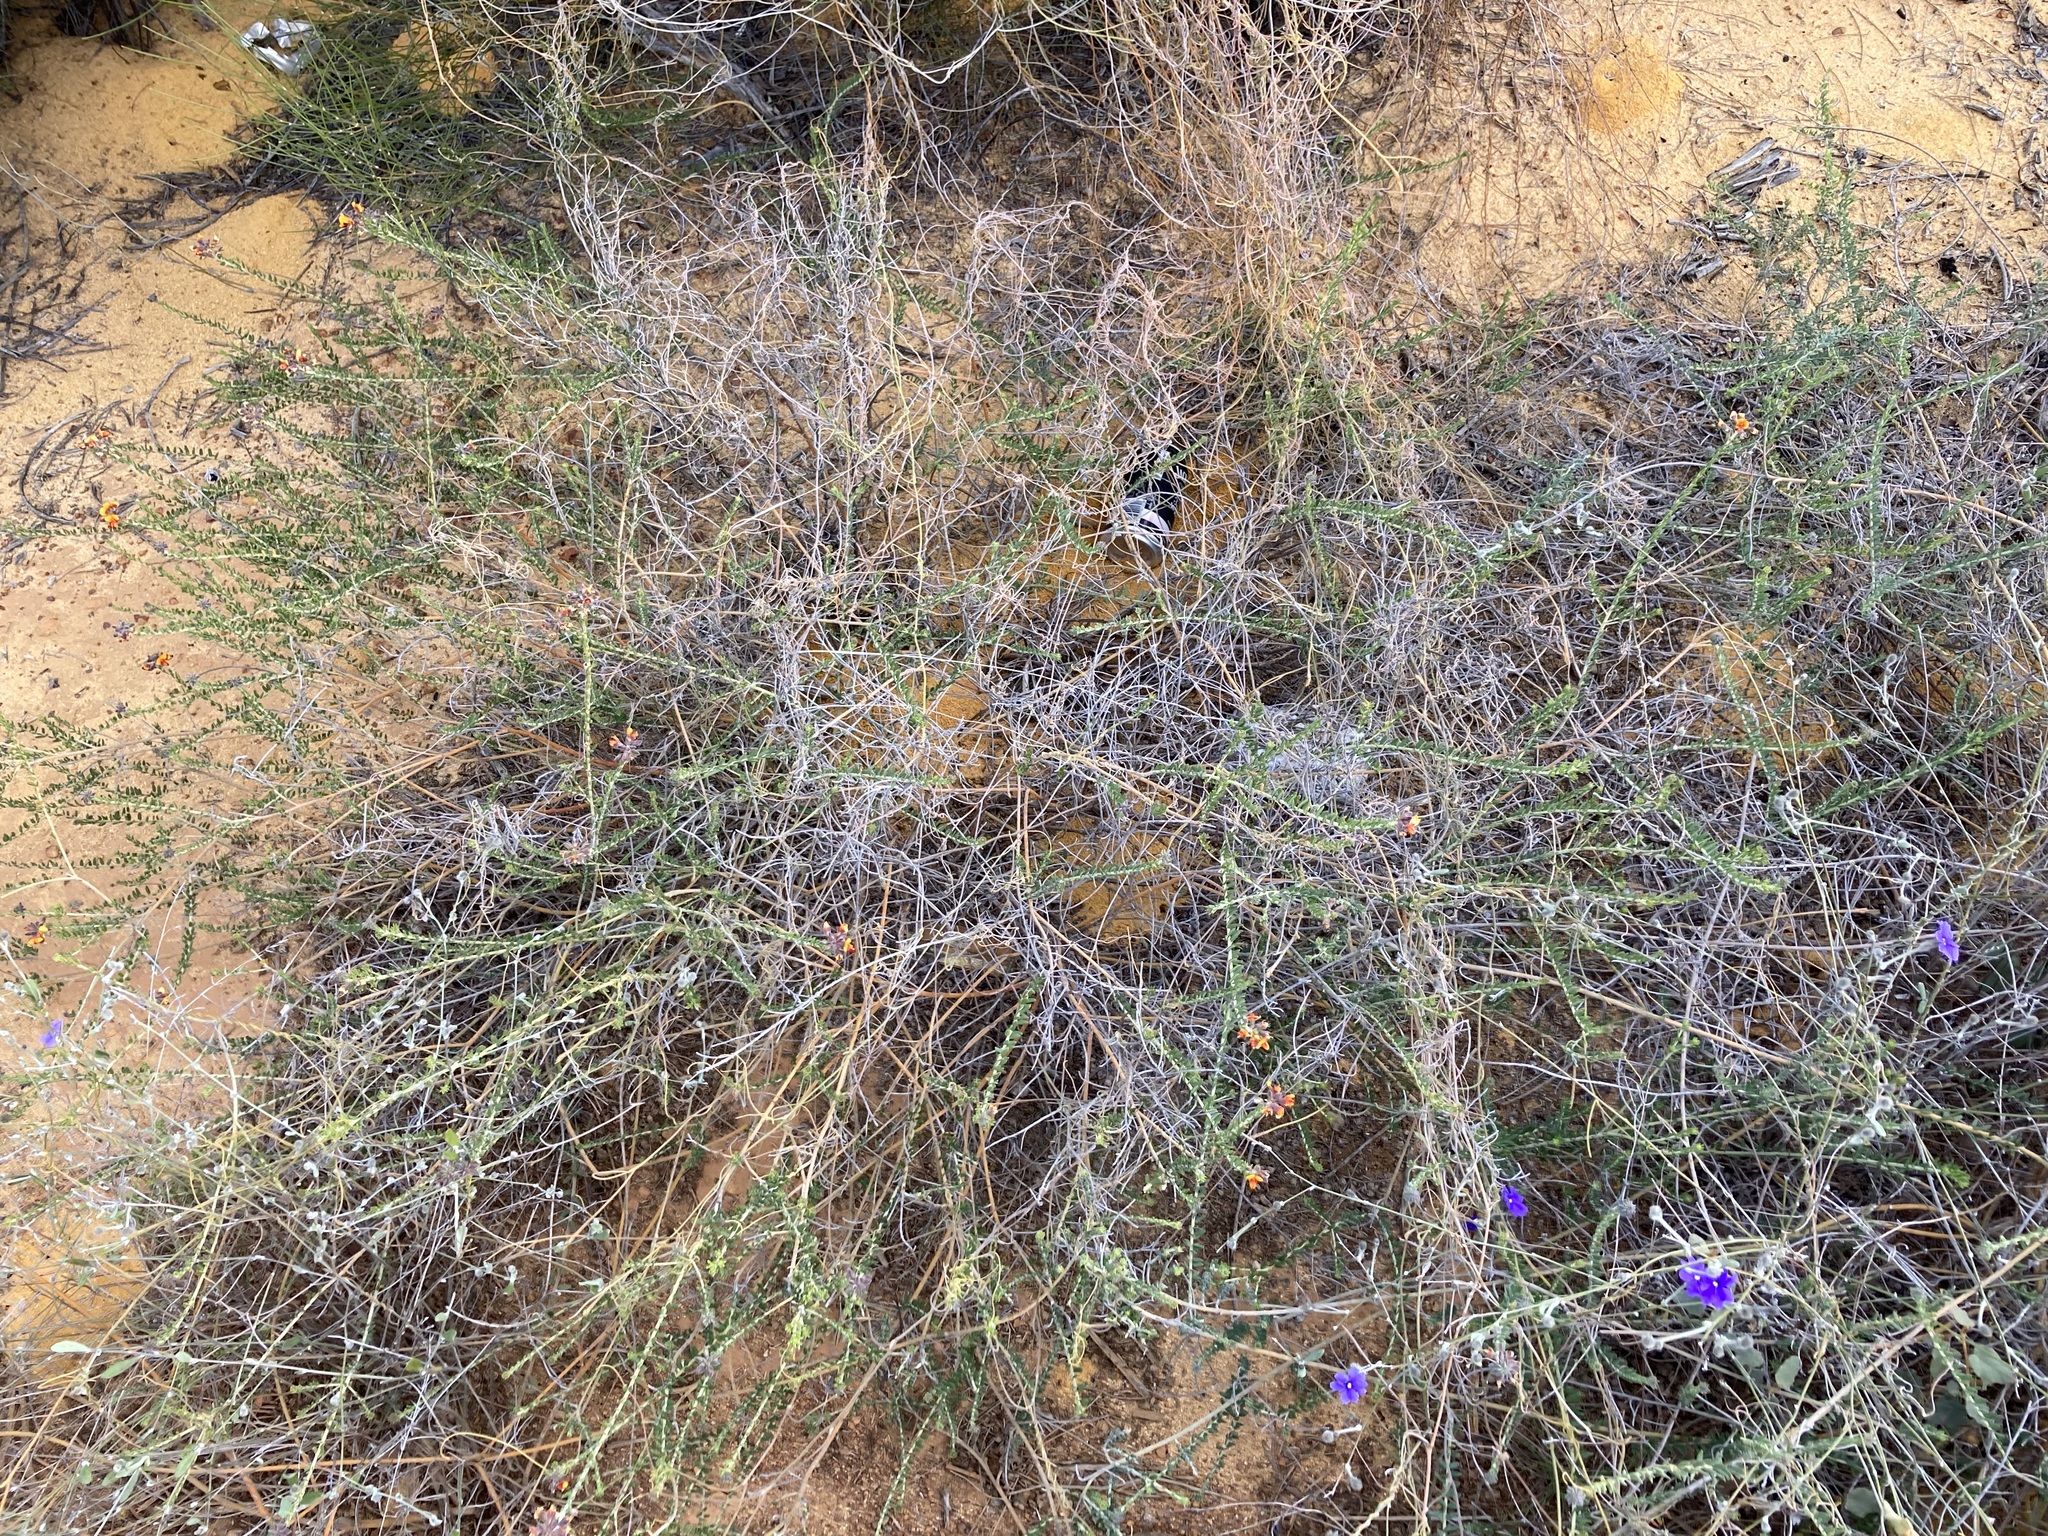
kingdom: Plantae
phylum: Tracheophyta
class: Magnoliopsida
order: Fabales
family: Fabaceae
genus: Aotus
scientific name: Aotus phylicoides
